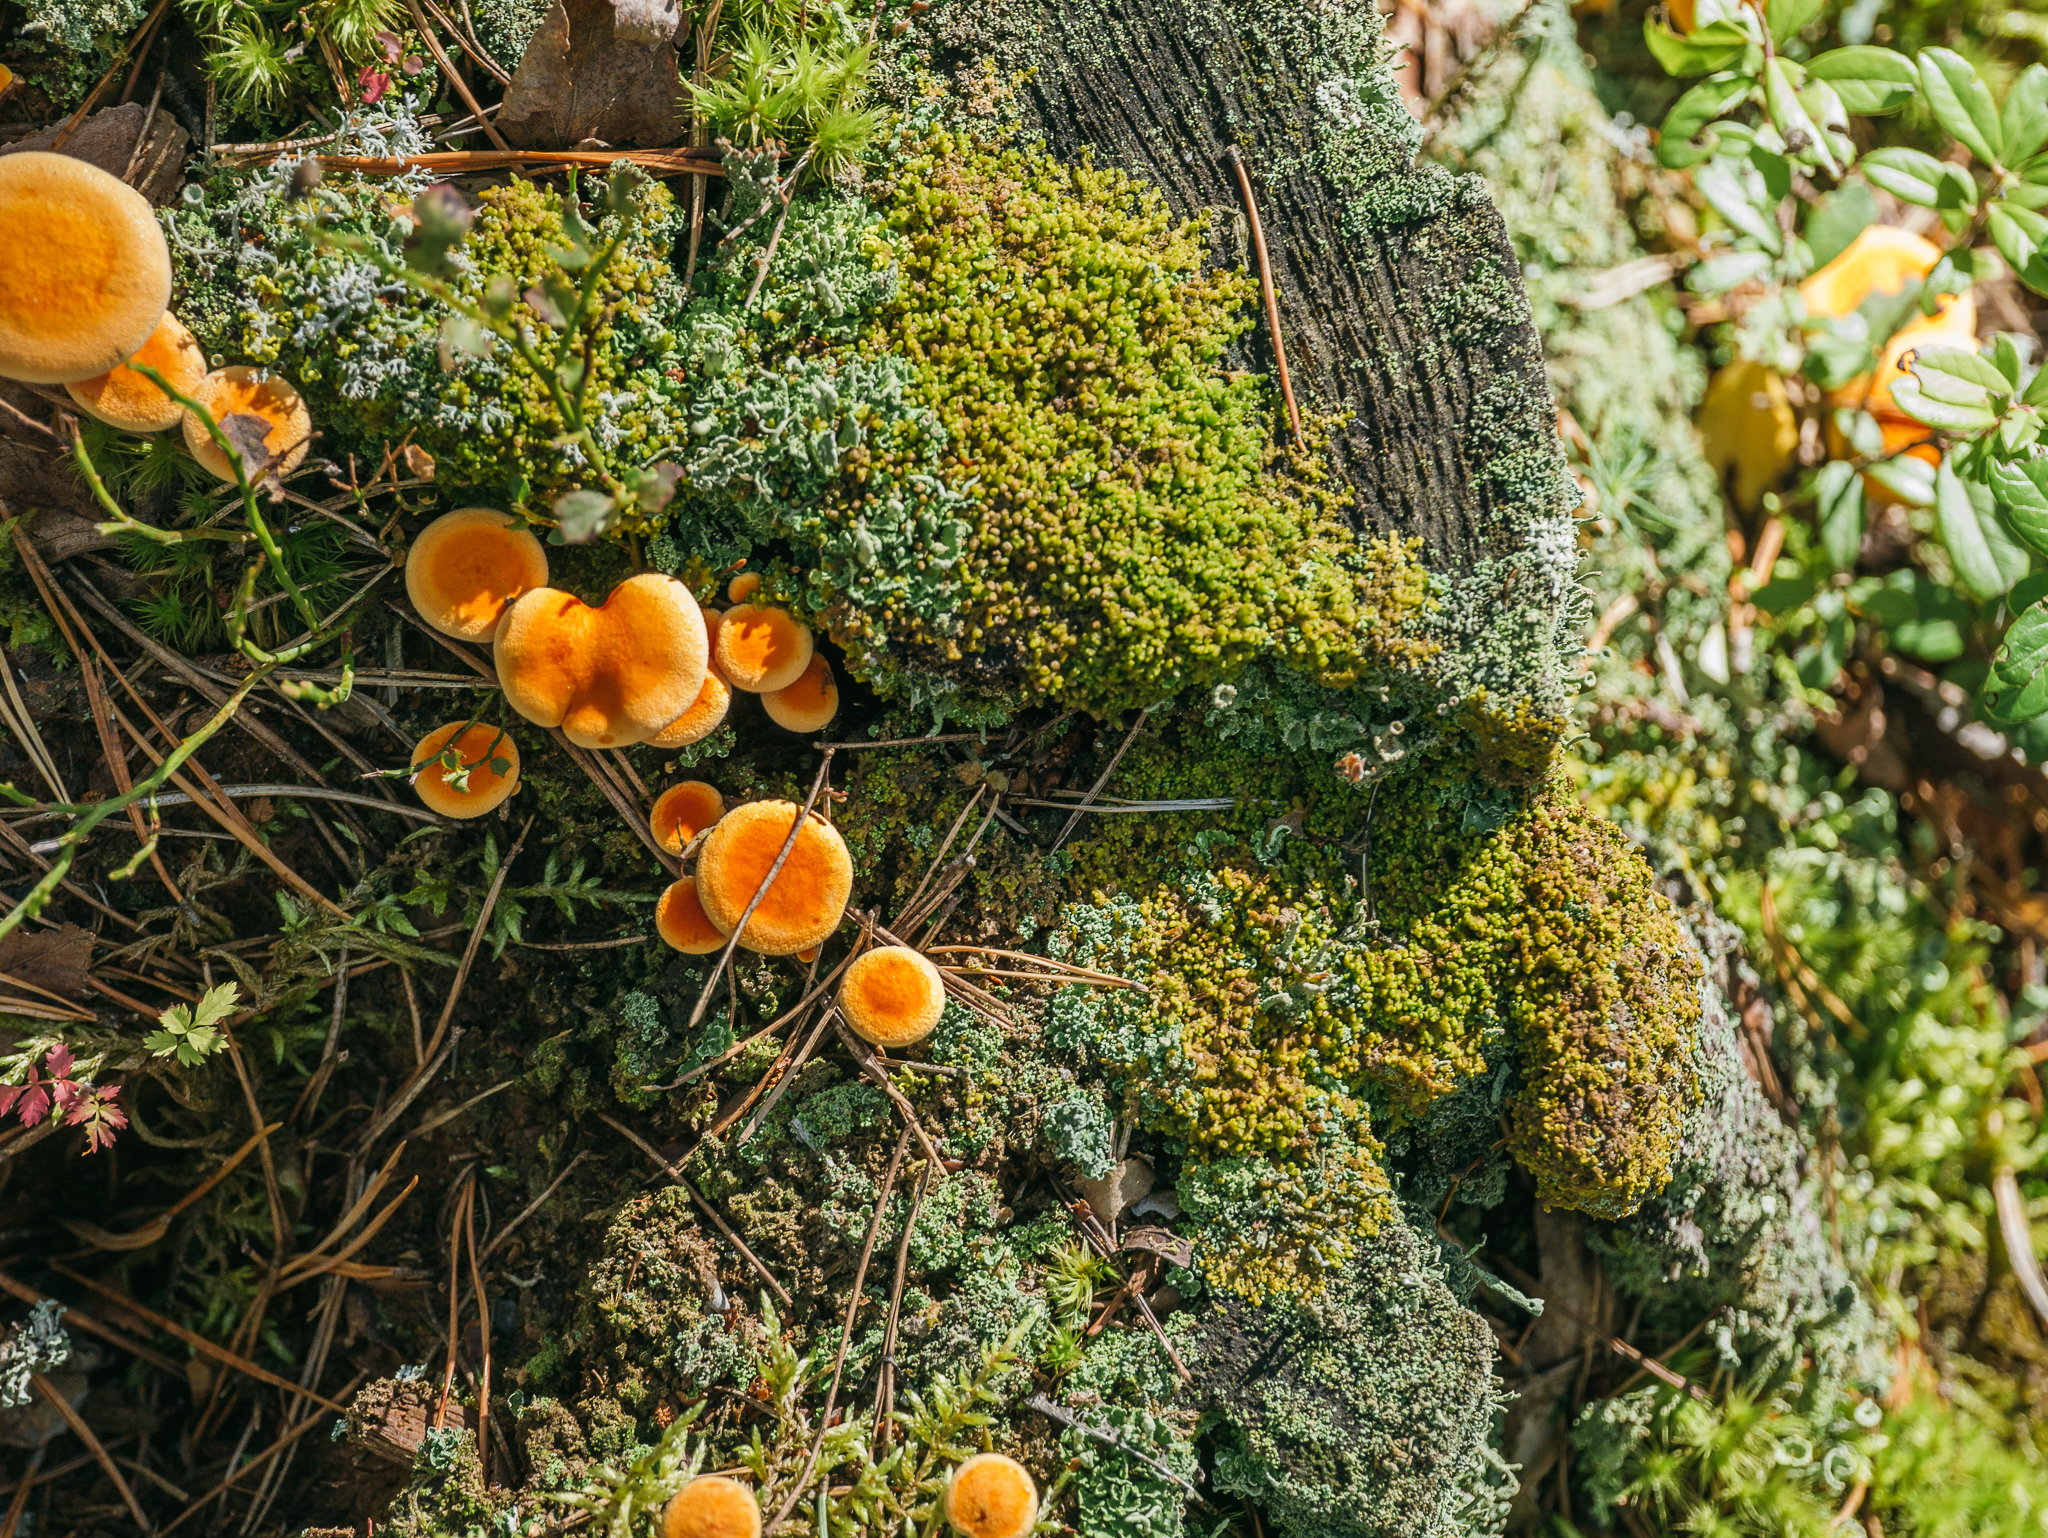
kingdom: Fungi
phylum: Basidiomycota
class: Agaricomycetes
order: Boletales
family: Hygrophoropsidaceae
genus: Hygrophoropsis
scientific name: Hygrophoropsis aurantiaca
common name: False chanterelle
